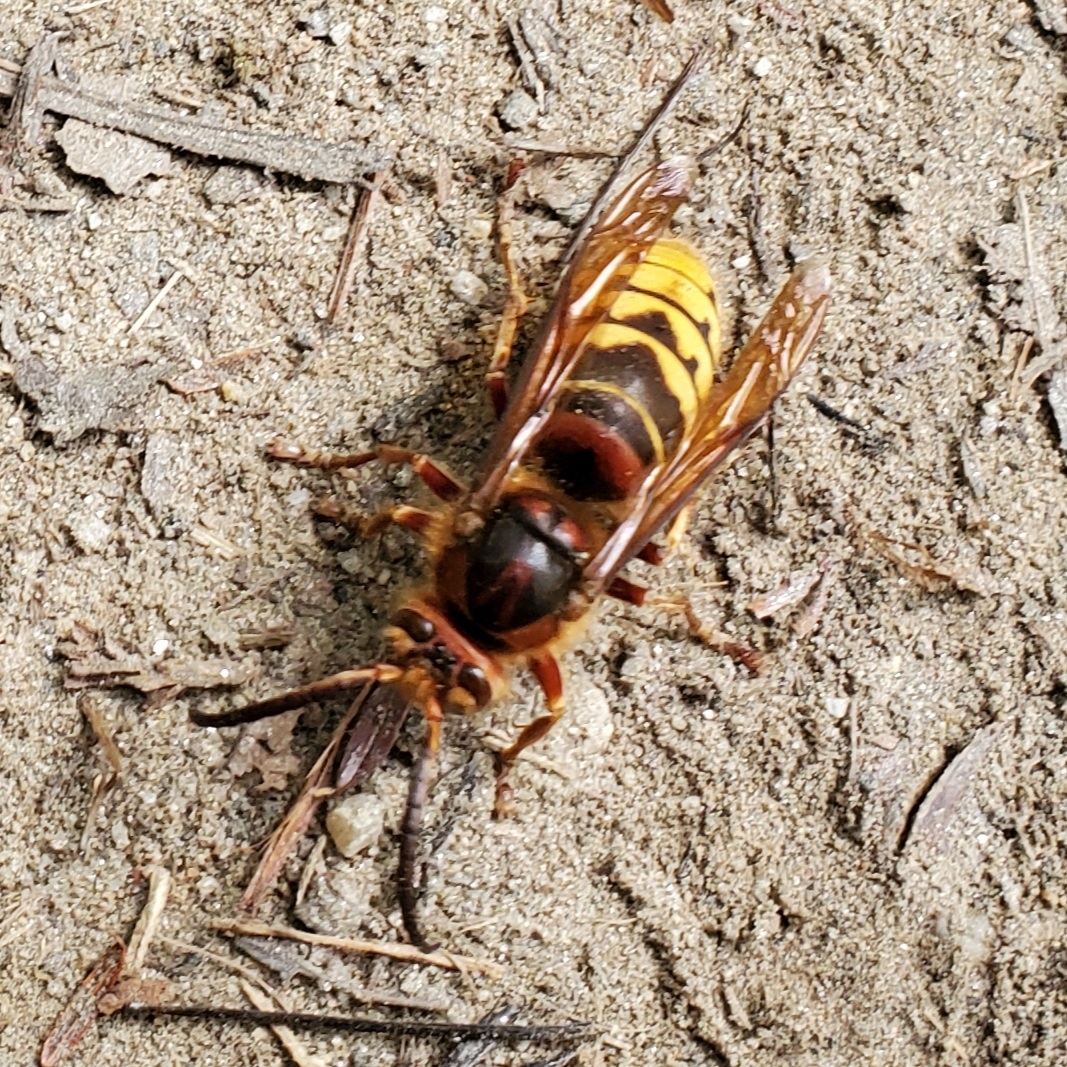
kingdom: Animalia
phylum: Arthropoda
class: Insecta
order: Hymenoptera
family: Vespidae
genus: Vespa
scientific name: Vespa crabro
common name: Hornet
